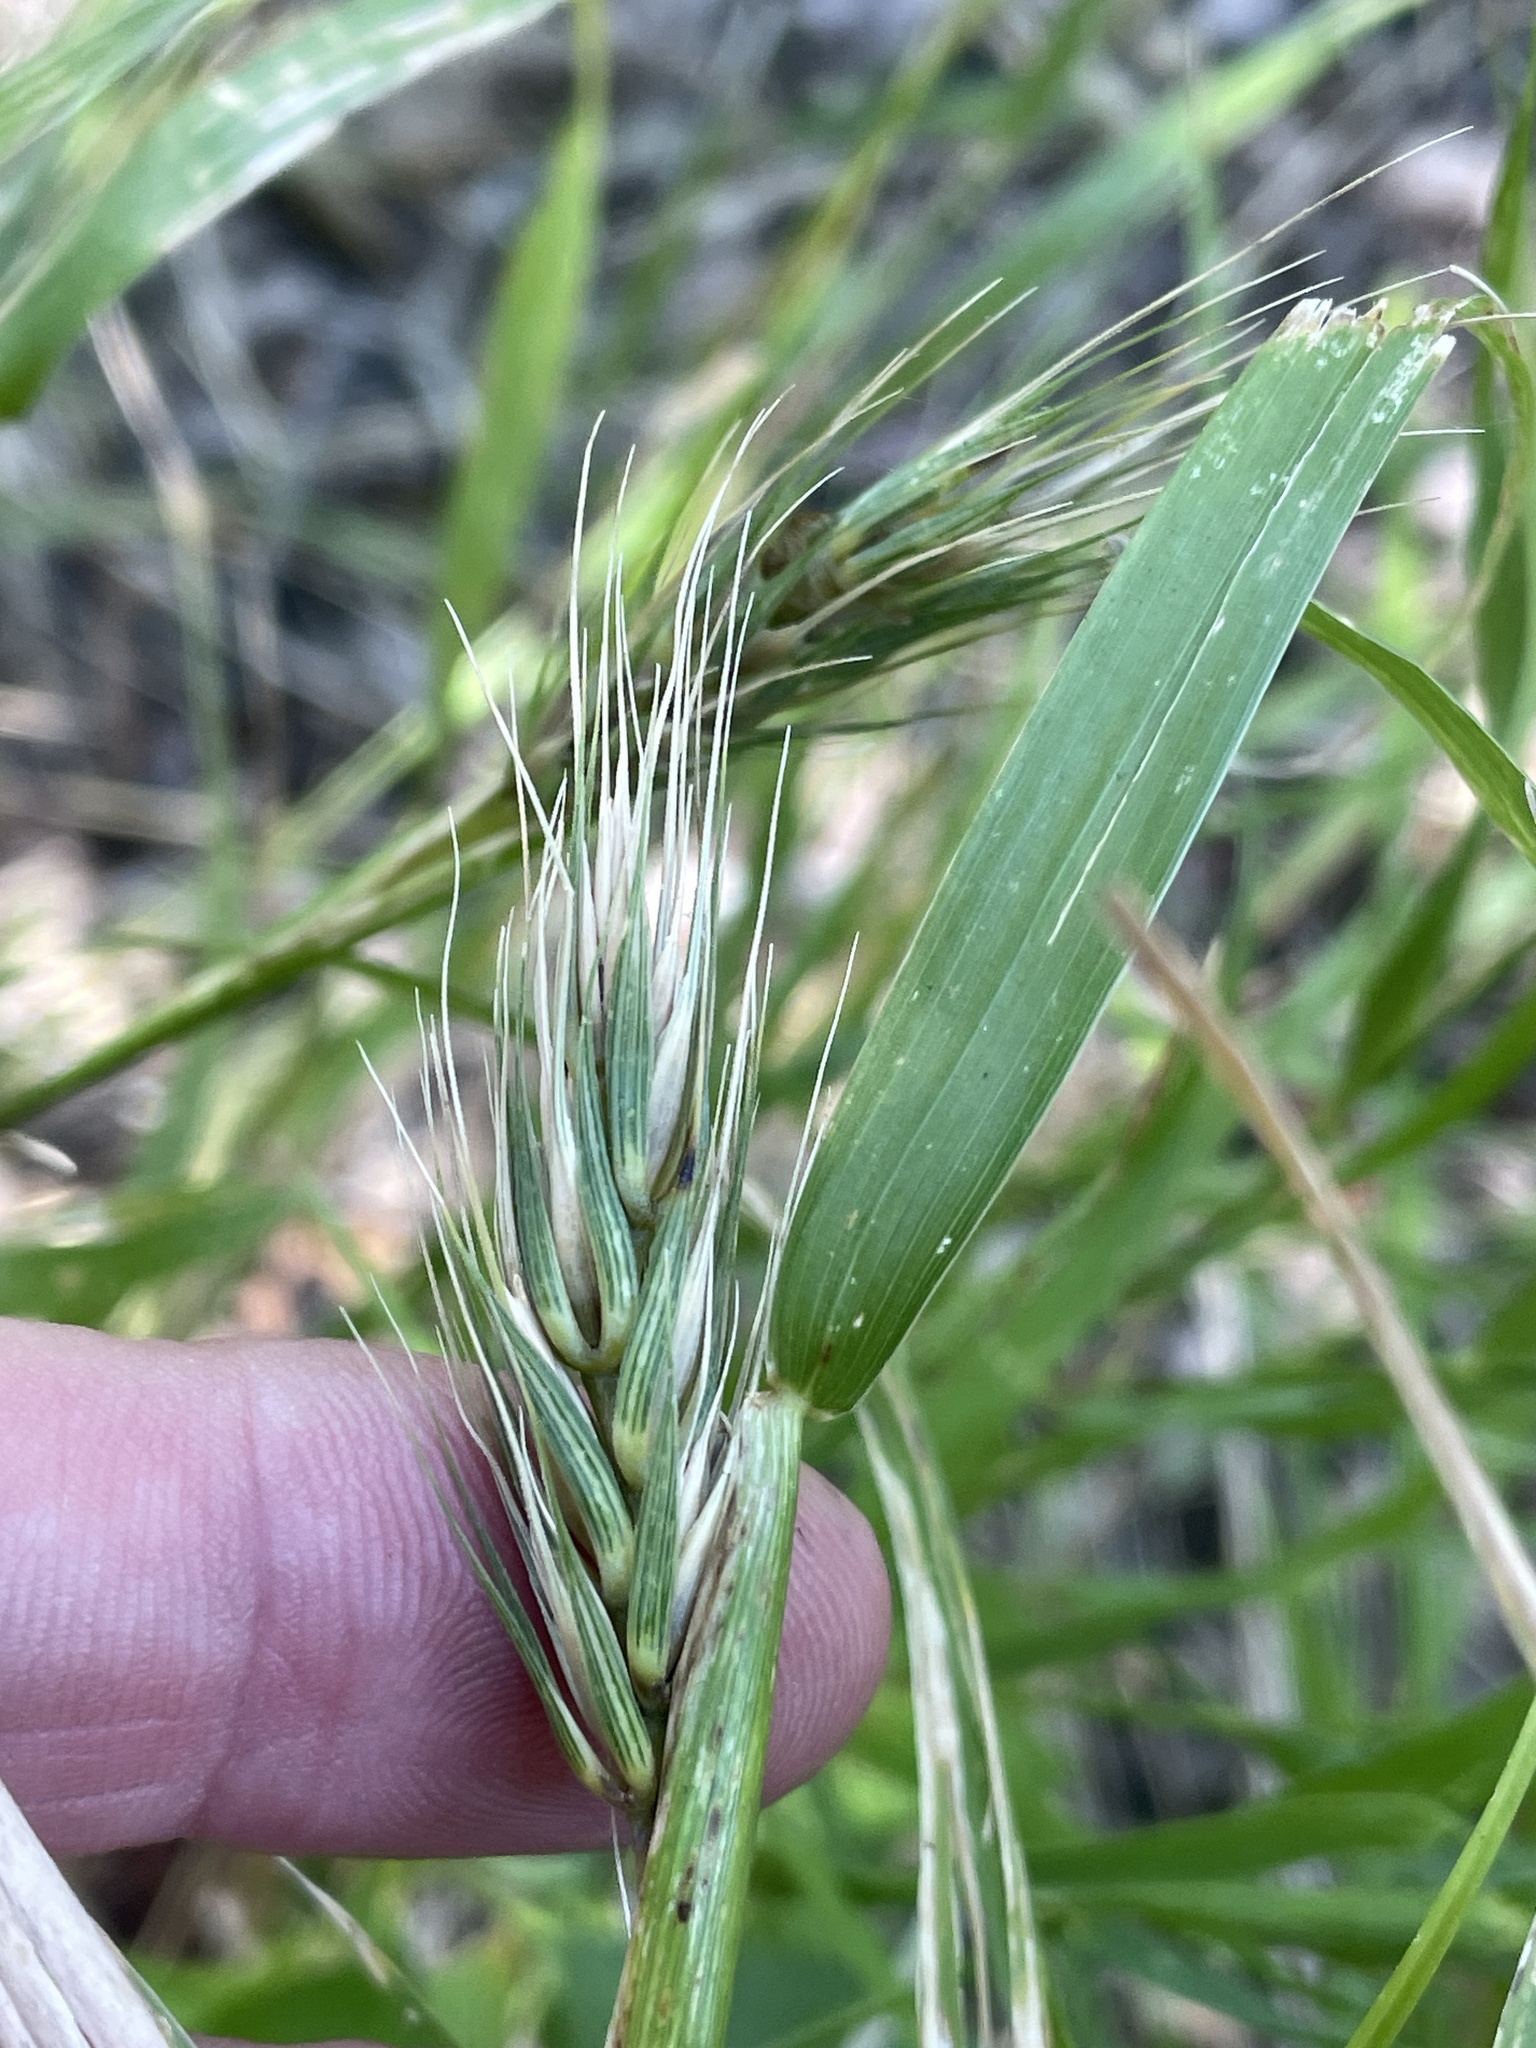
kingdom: Plantae
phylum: Tracheophyta
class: Liliopsida
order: Poales
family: Poaceae
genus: Elymus
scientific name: Elymus virginicus
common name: Common eastern wildrye
